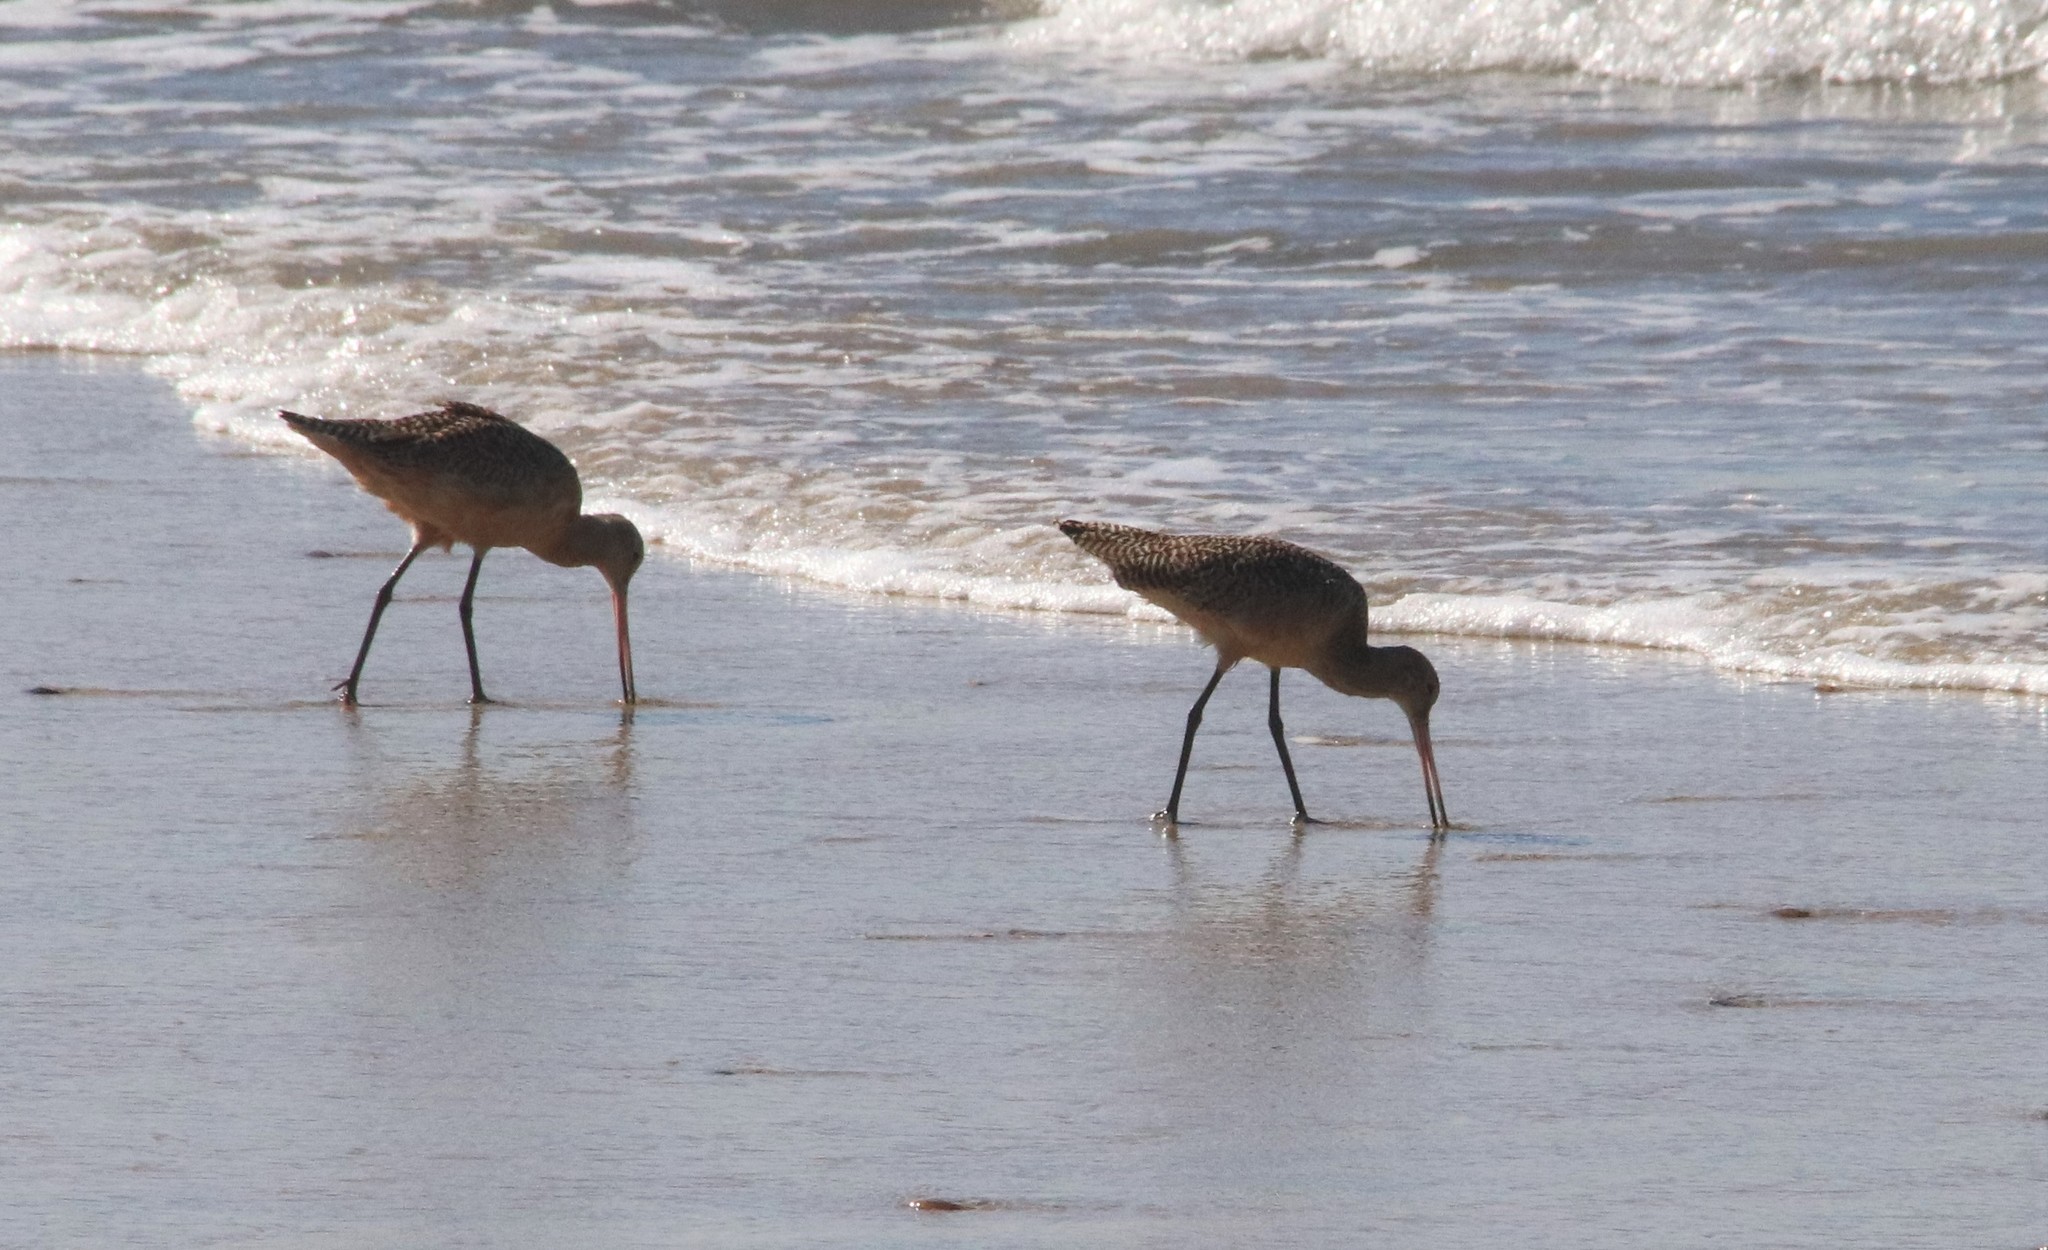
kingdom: Animalia
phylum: Chordata
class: Aves
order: Charadriiformes
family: Scolopacidae
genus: Limosa
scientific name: Limosa fedoa
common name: Marbled godwit
